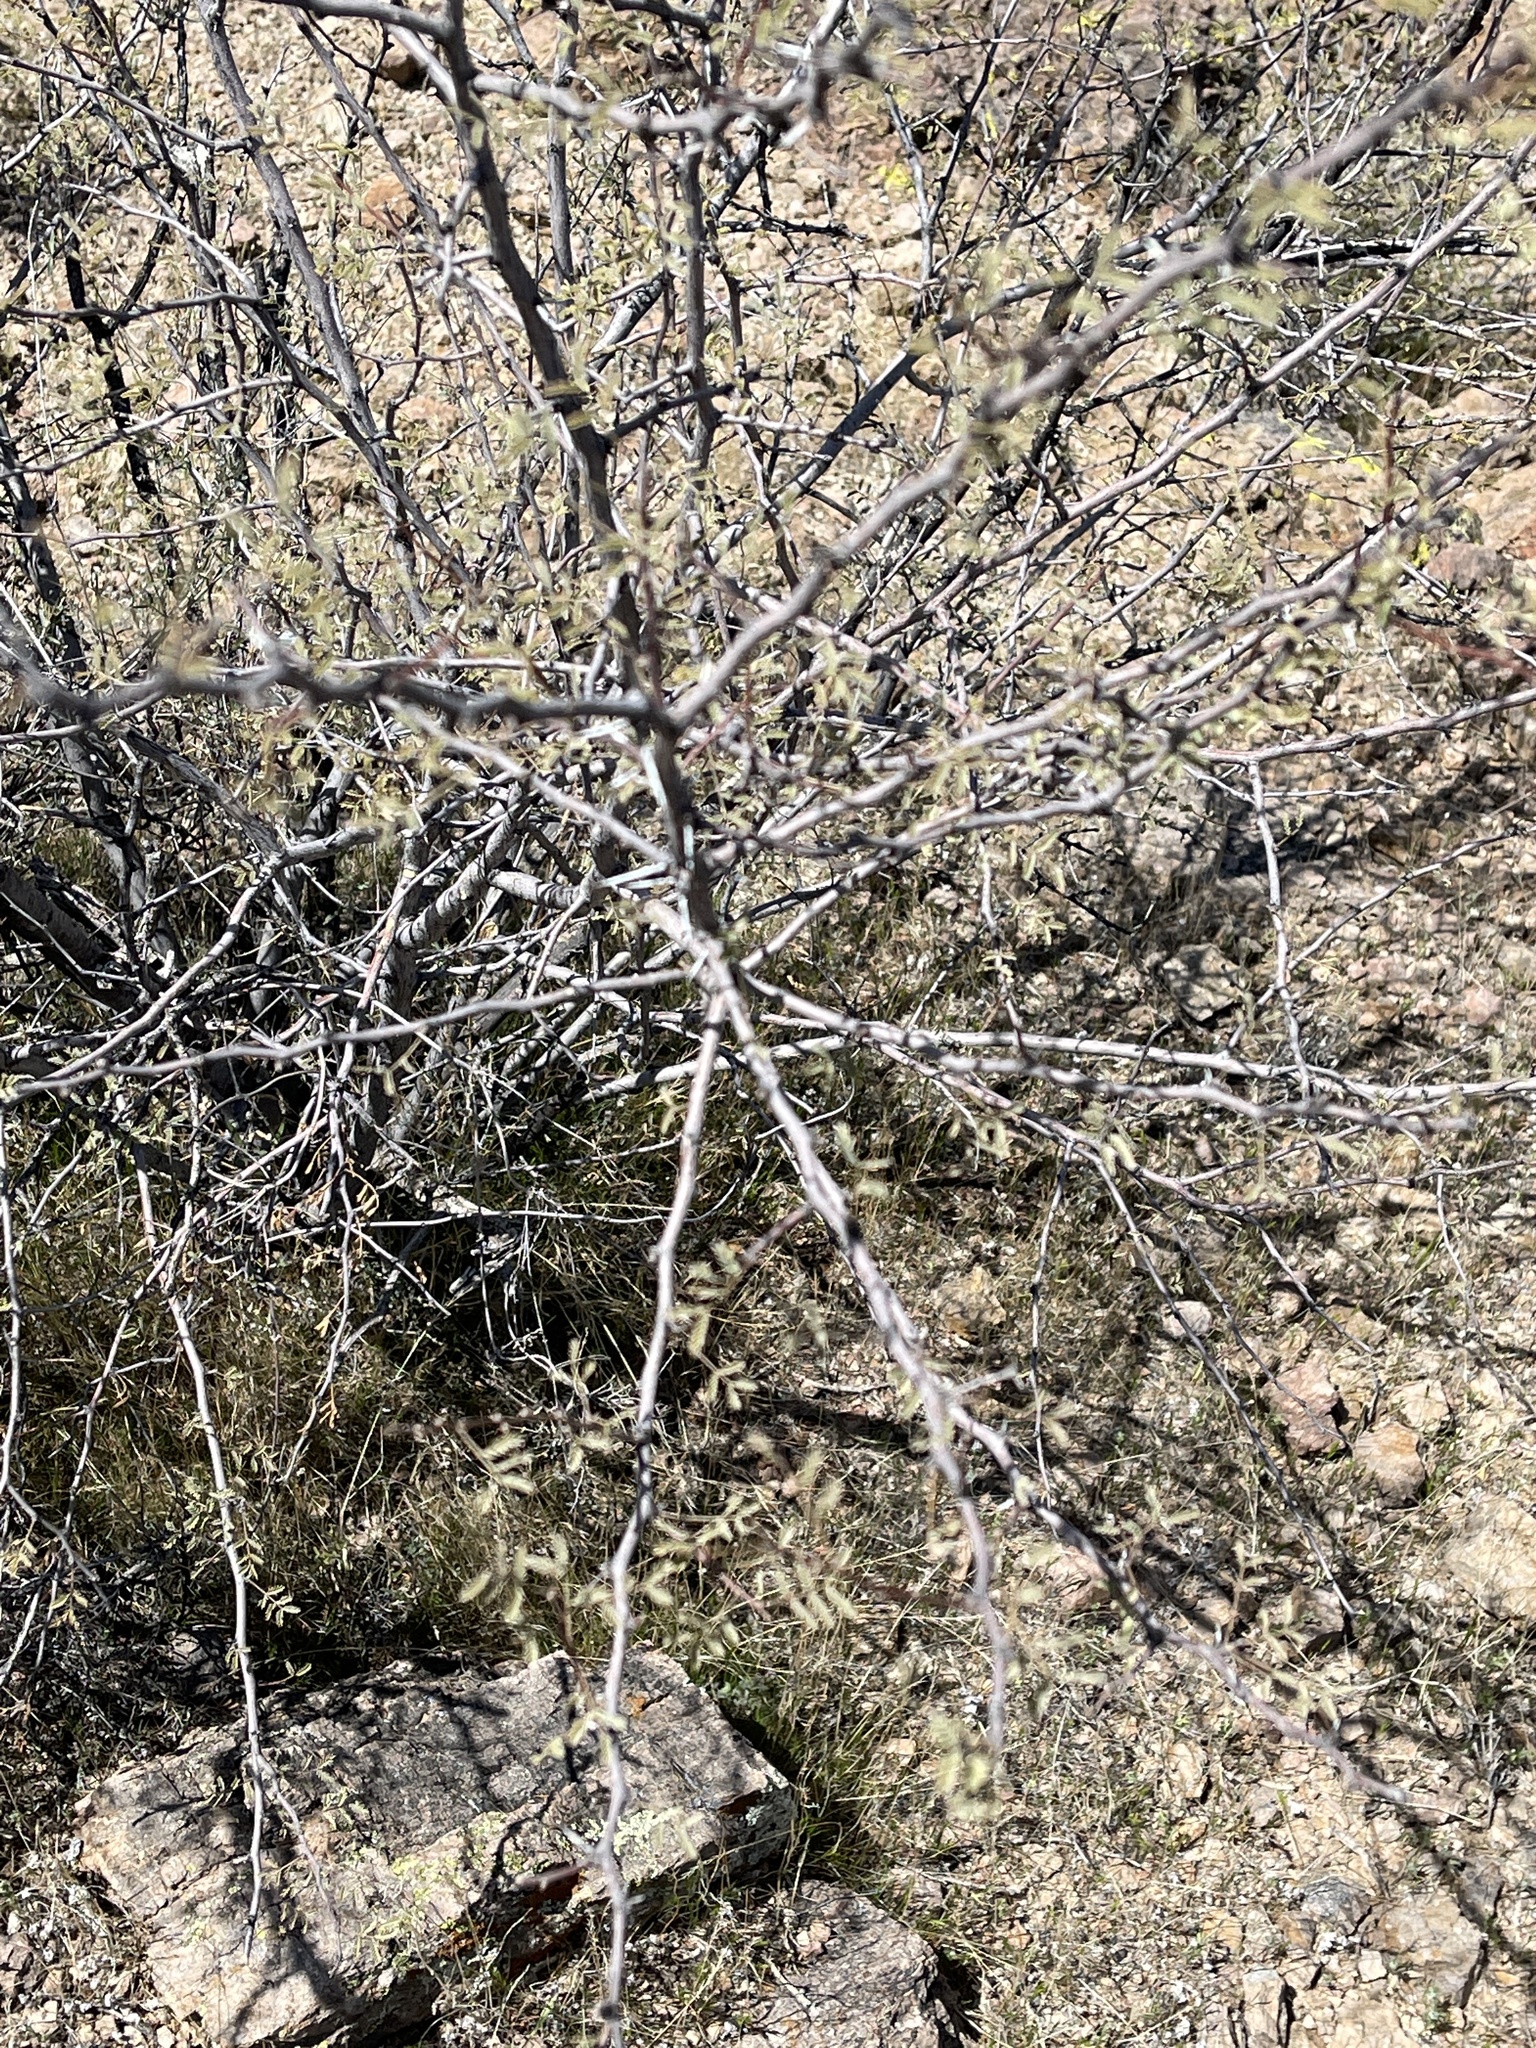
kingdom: Plantae
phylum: Tracheophyta
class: Magnoliopsida
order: Fabales
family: Fabaceae
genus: Mimosa
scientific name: Mimosa aculeaticarpa
